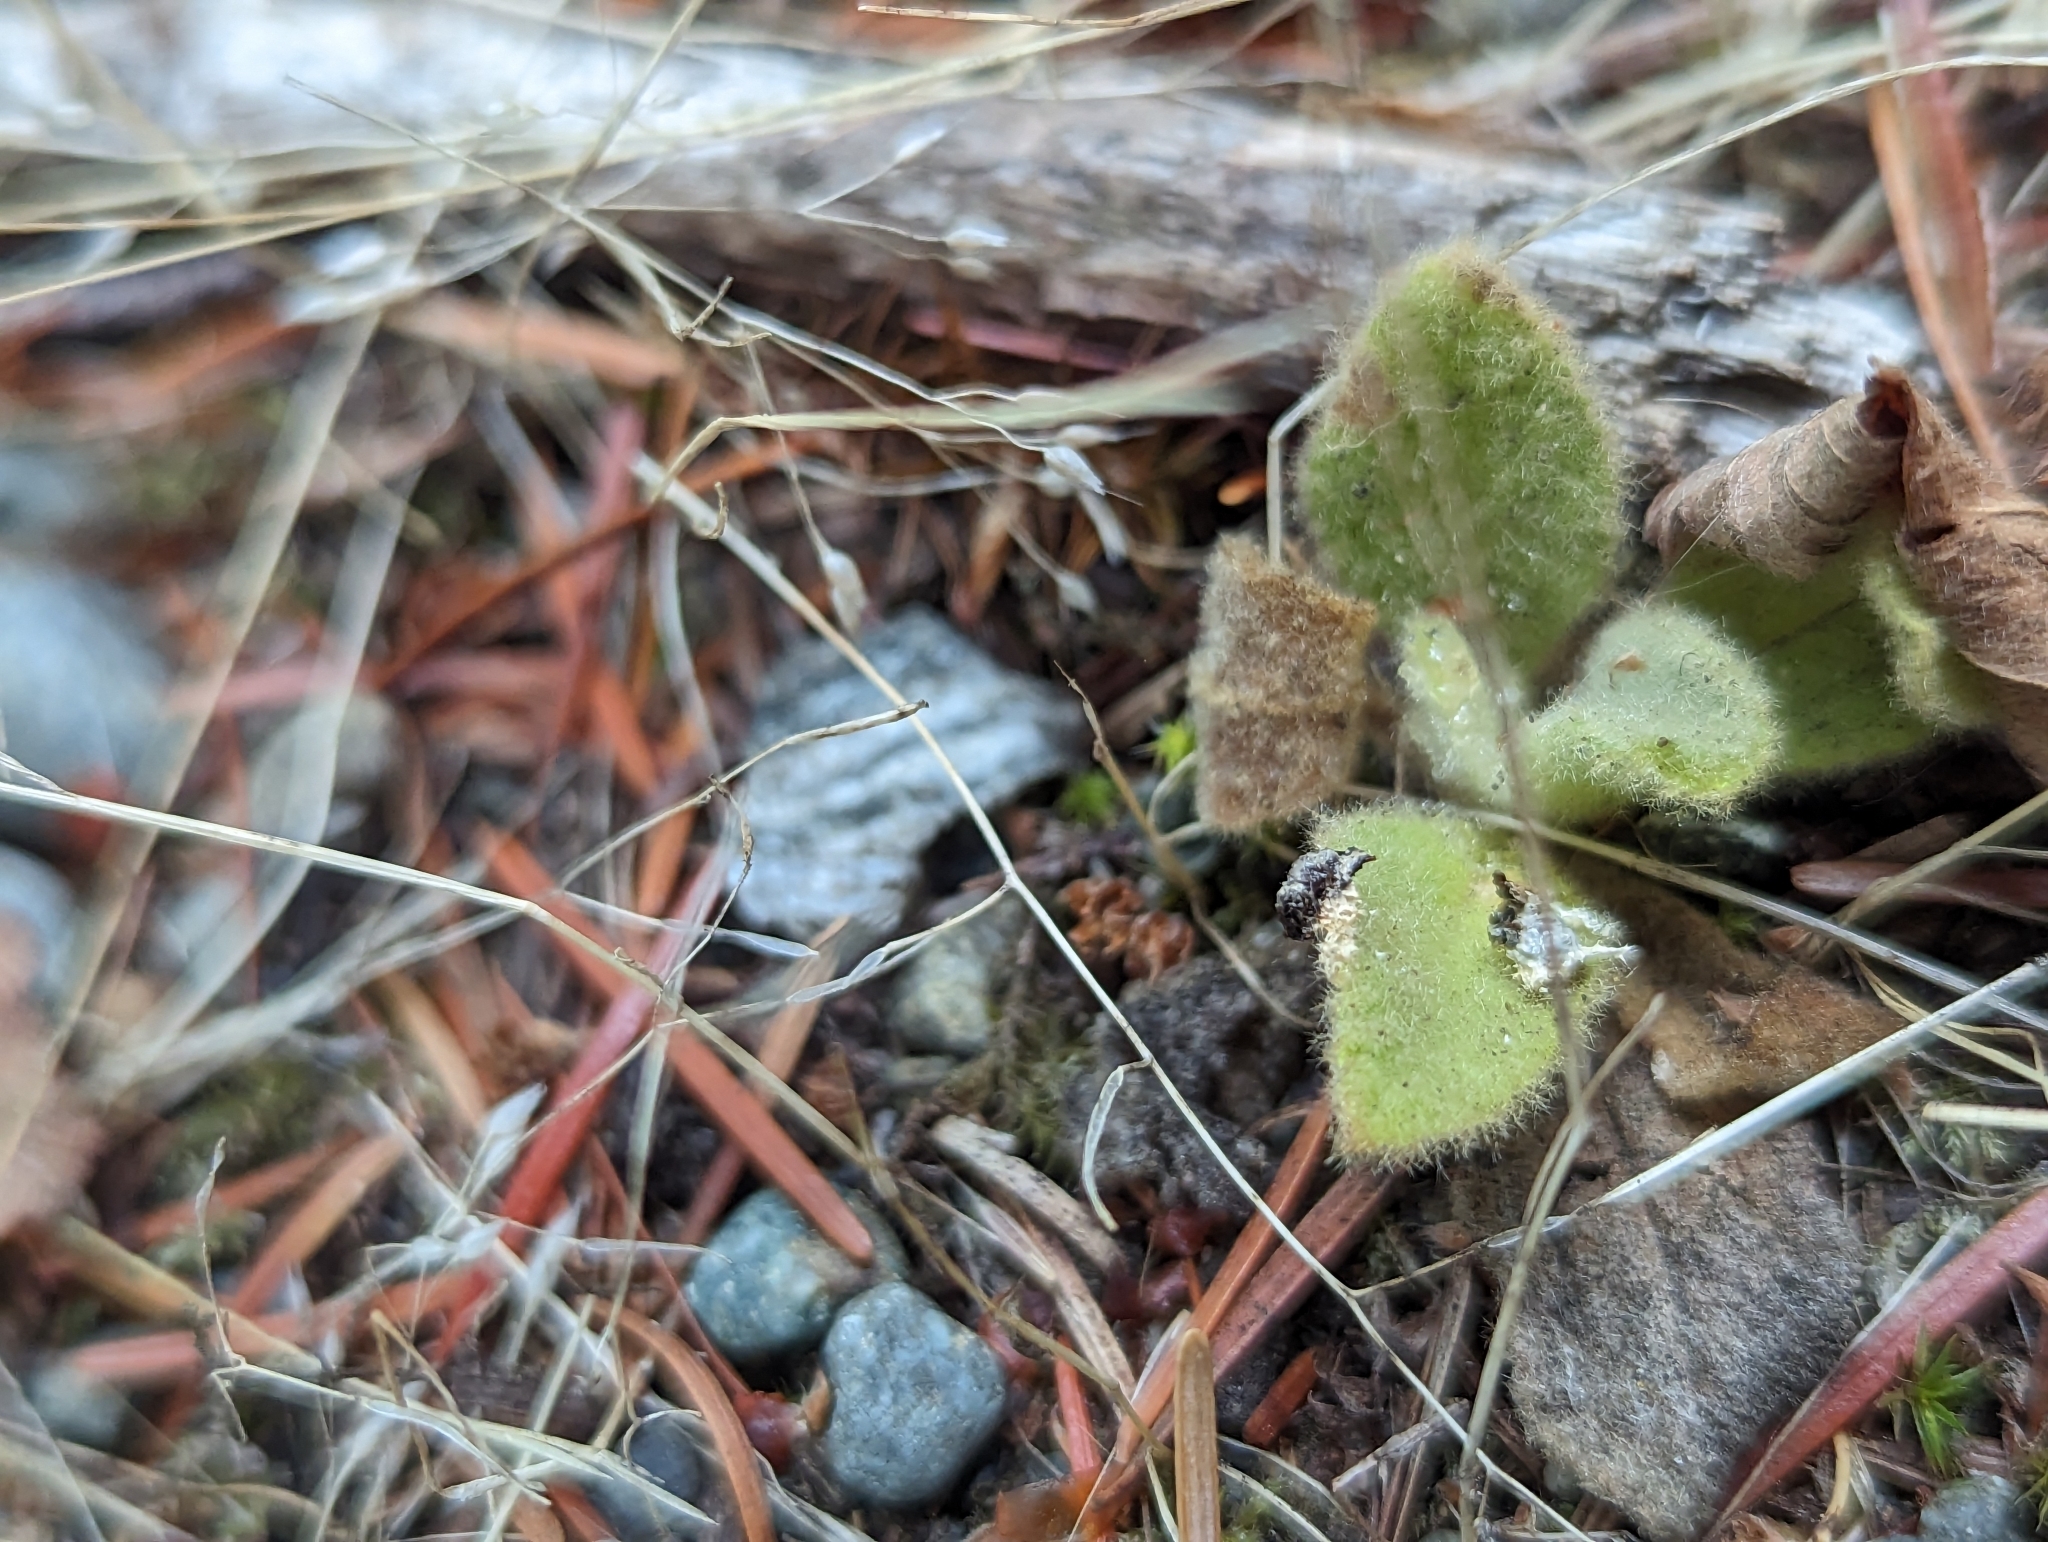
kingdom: Plantae
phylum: Tracheophyta
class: Magnoliopsida
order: Lamiales
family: Scrophulariaceae
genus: Verbascum
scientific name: Verbascum thapsus
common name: Common mullein
